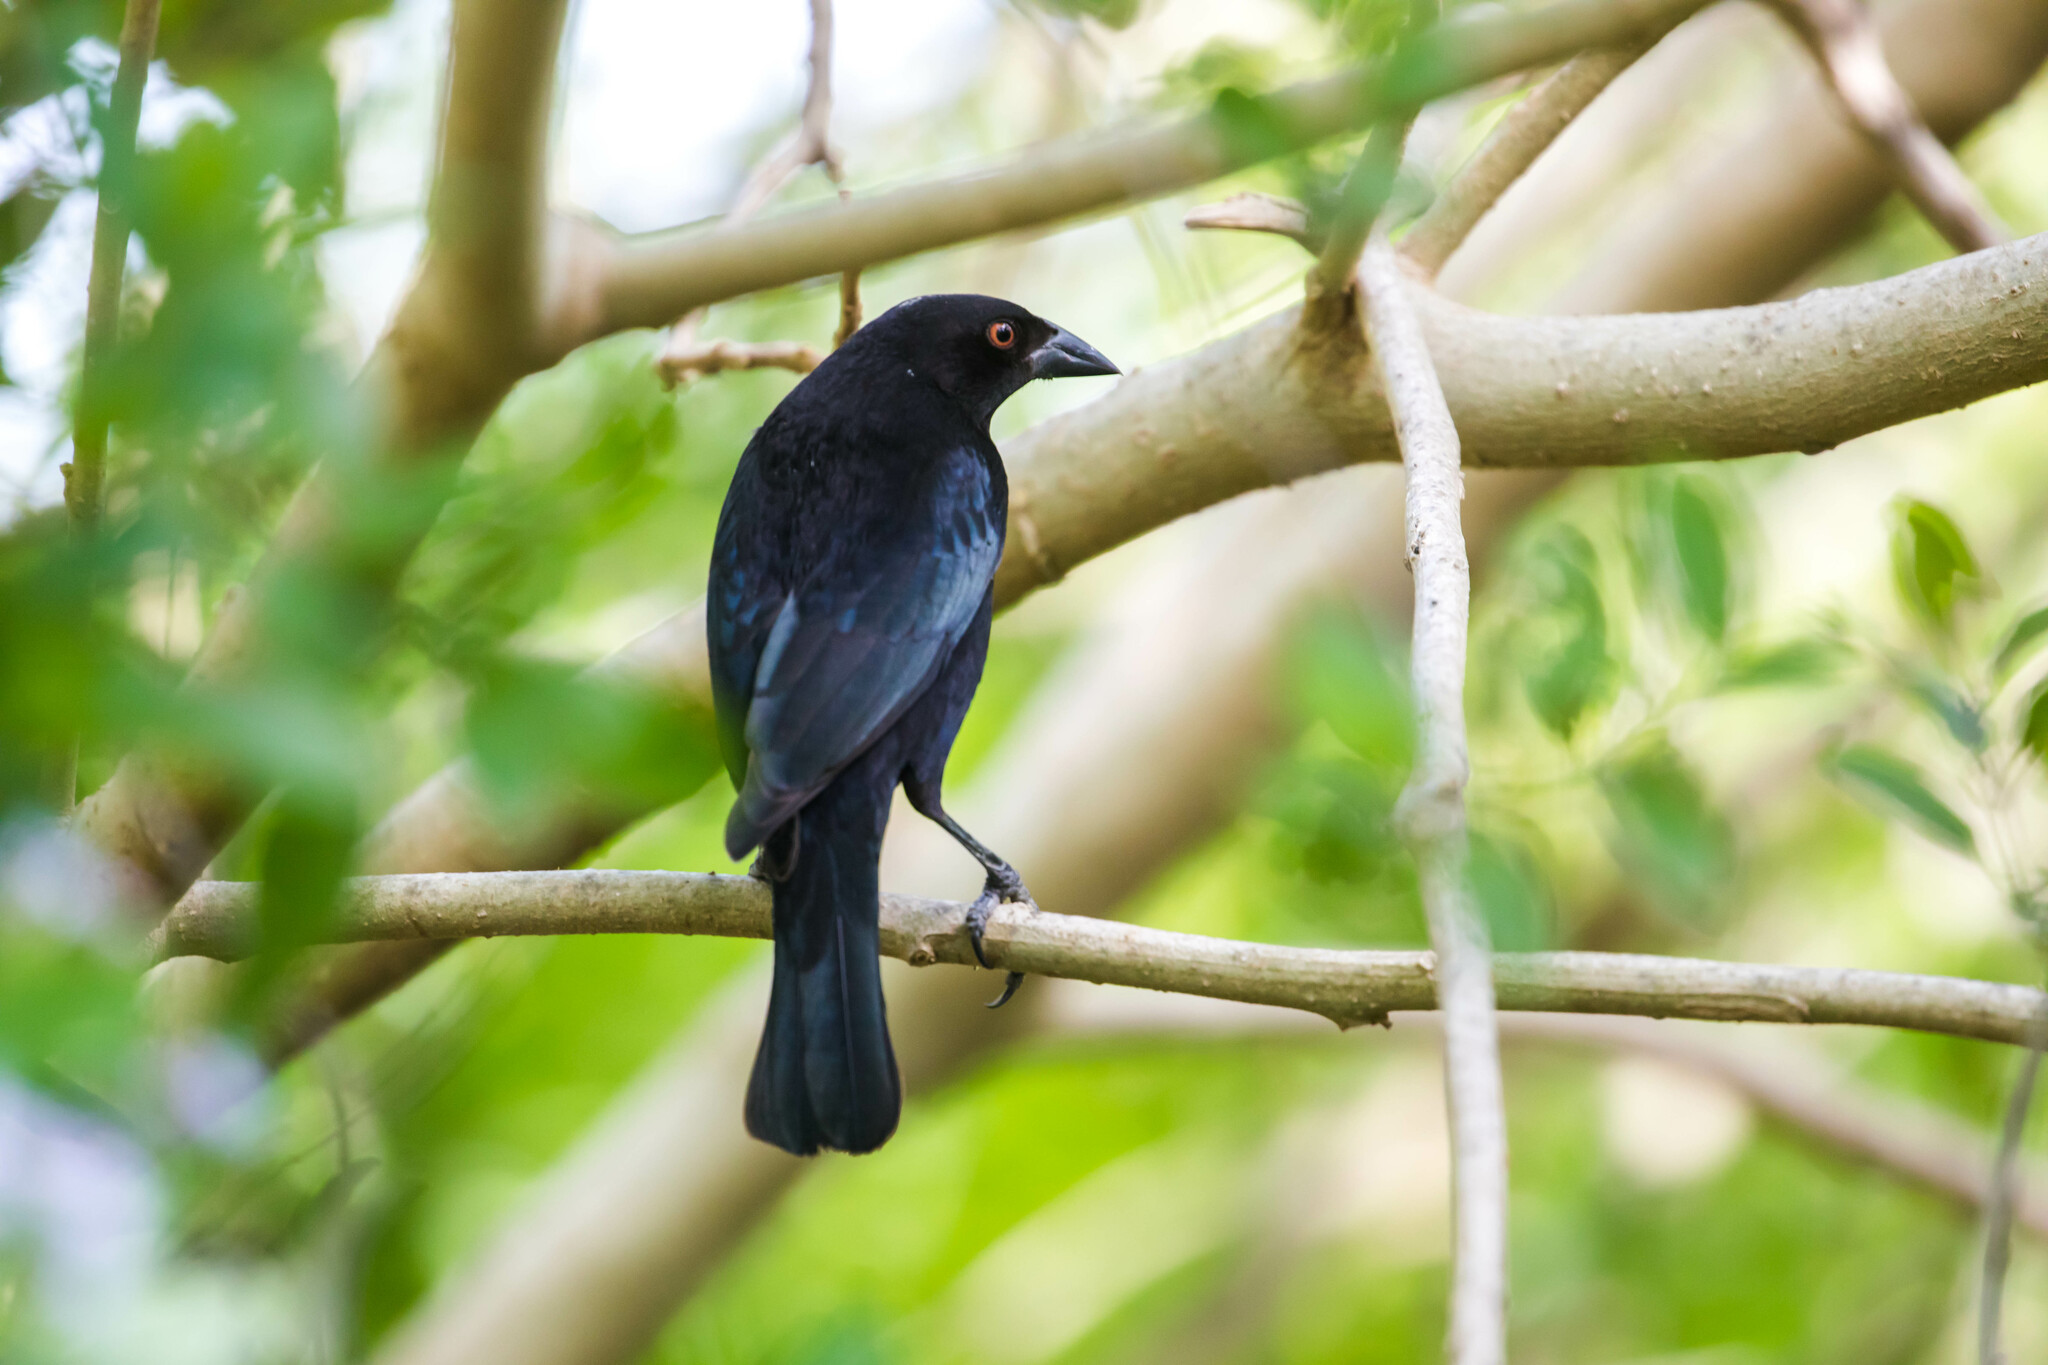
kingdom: Animalia
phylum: Chordata
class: Aves
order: Passeriformes
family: Icteridae
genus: Molothrus
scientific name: Molothrus aeneus
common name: Bronzed cowbird
